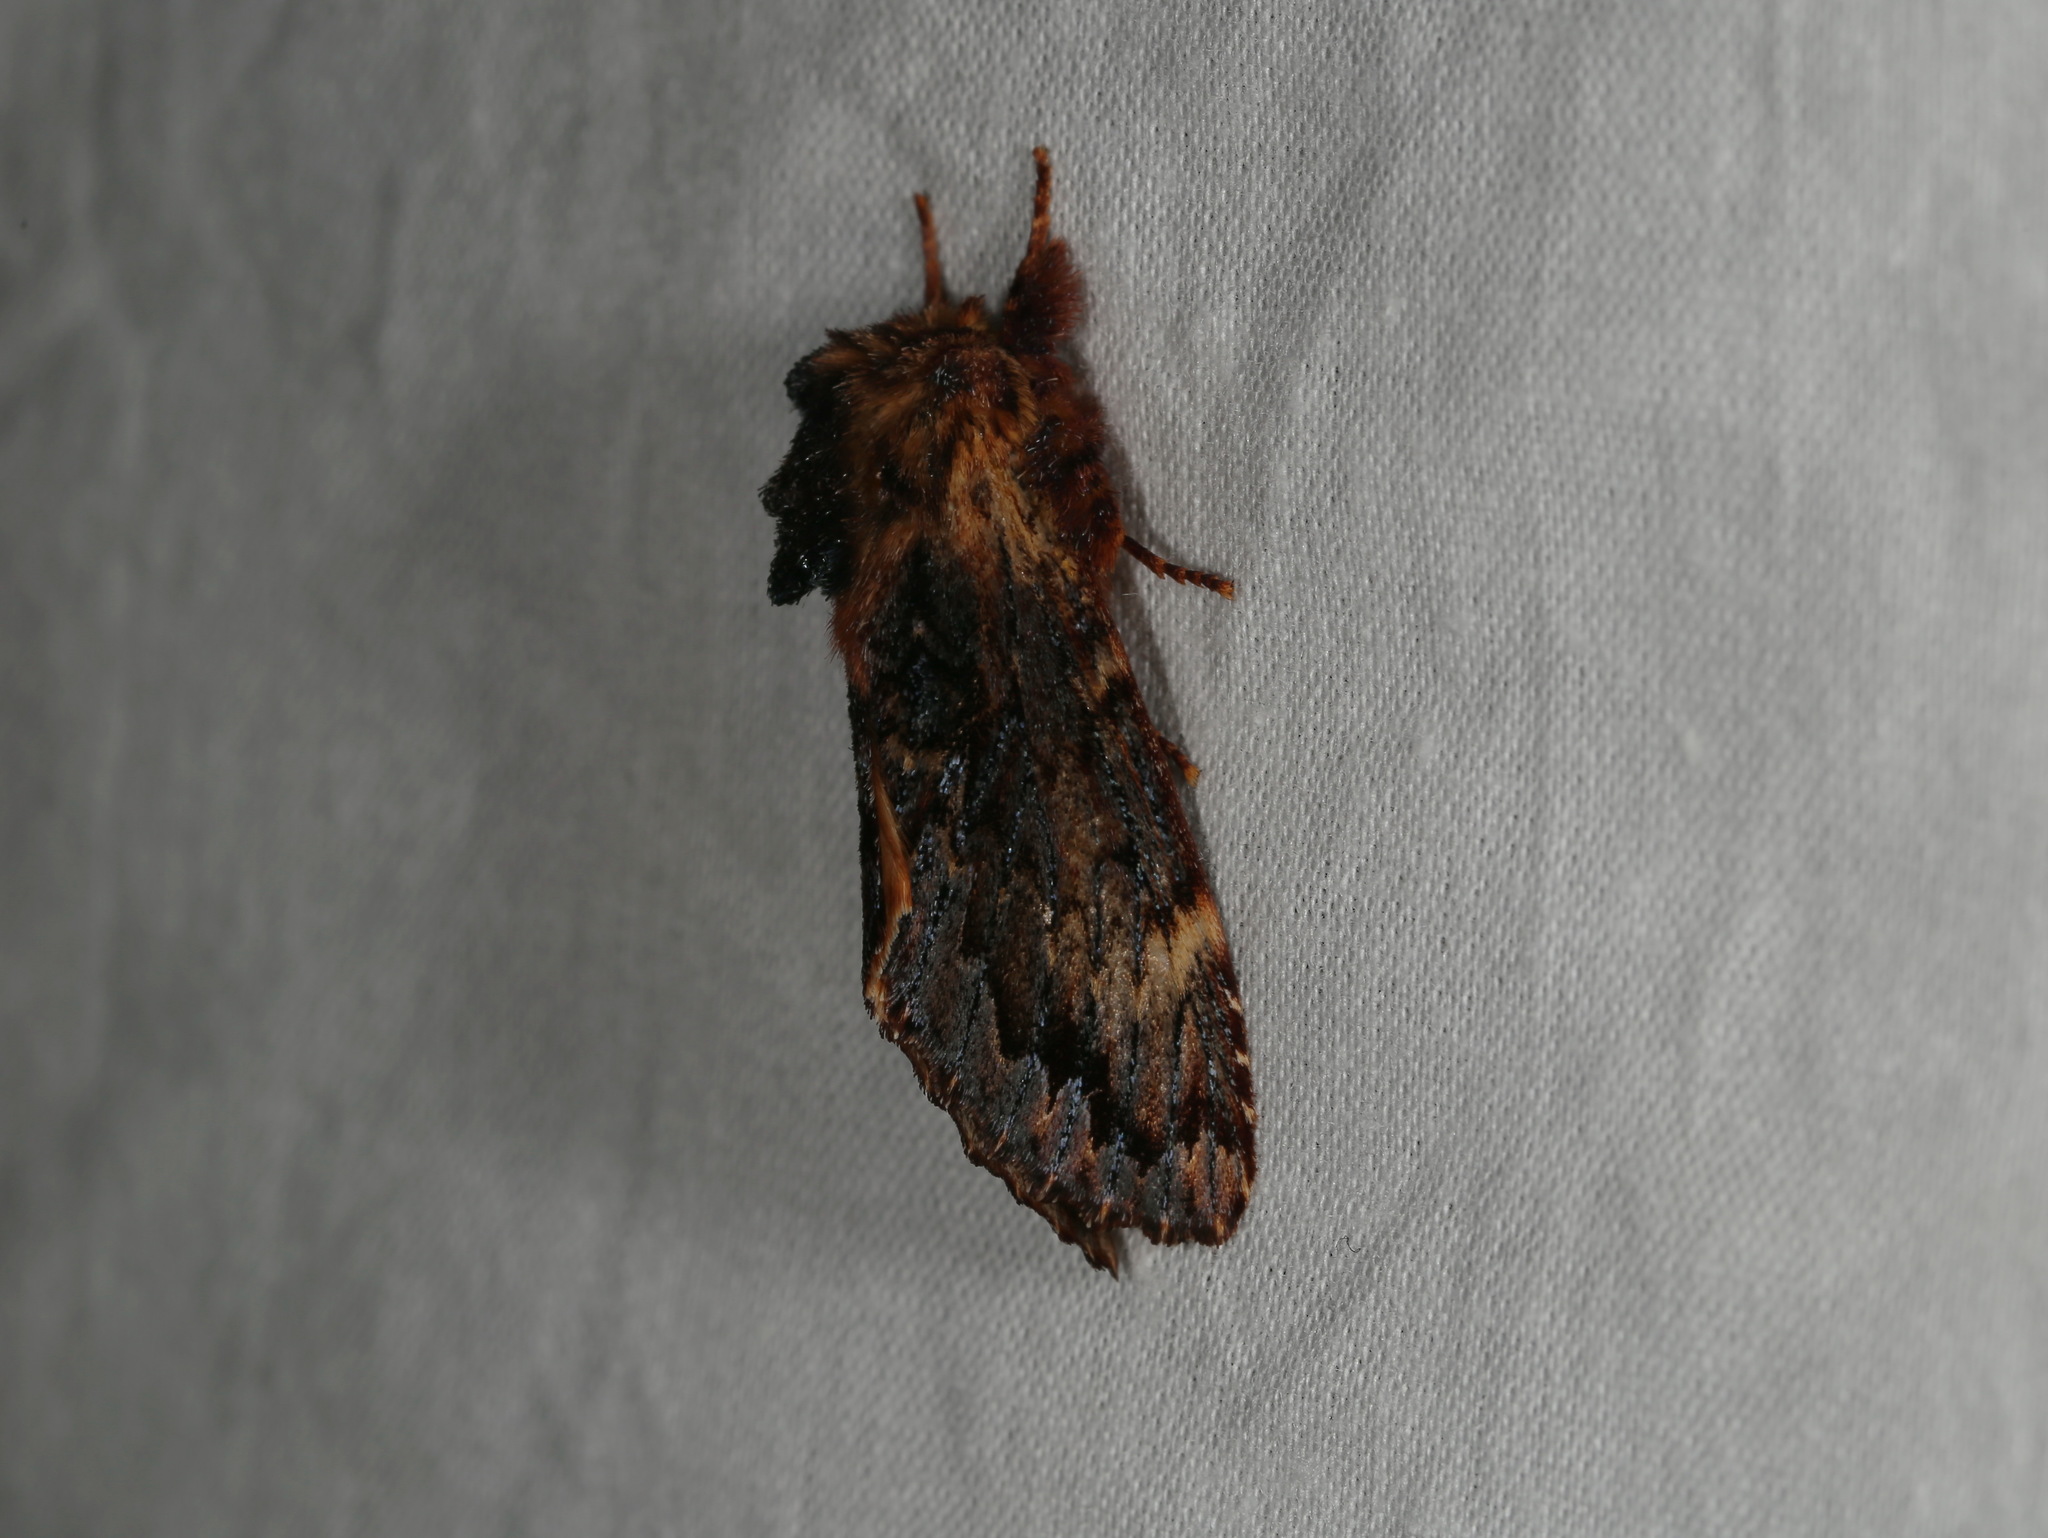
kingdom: Animalia
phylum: Arthropoda
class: Insecta
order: Lepidoptera
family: Notodontidae
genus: Sorama
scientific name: Sorama bicolor
